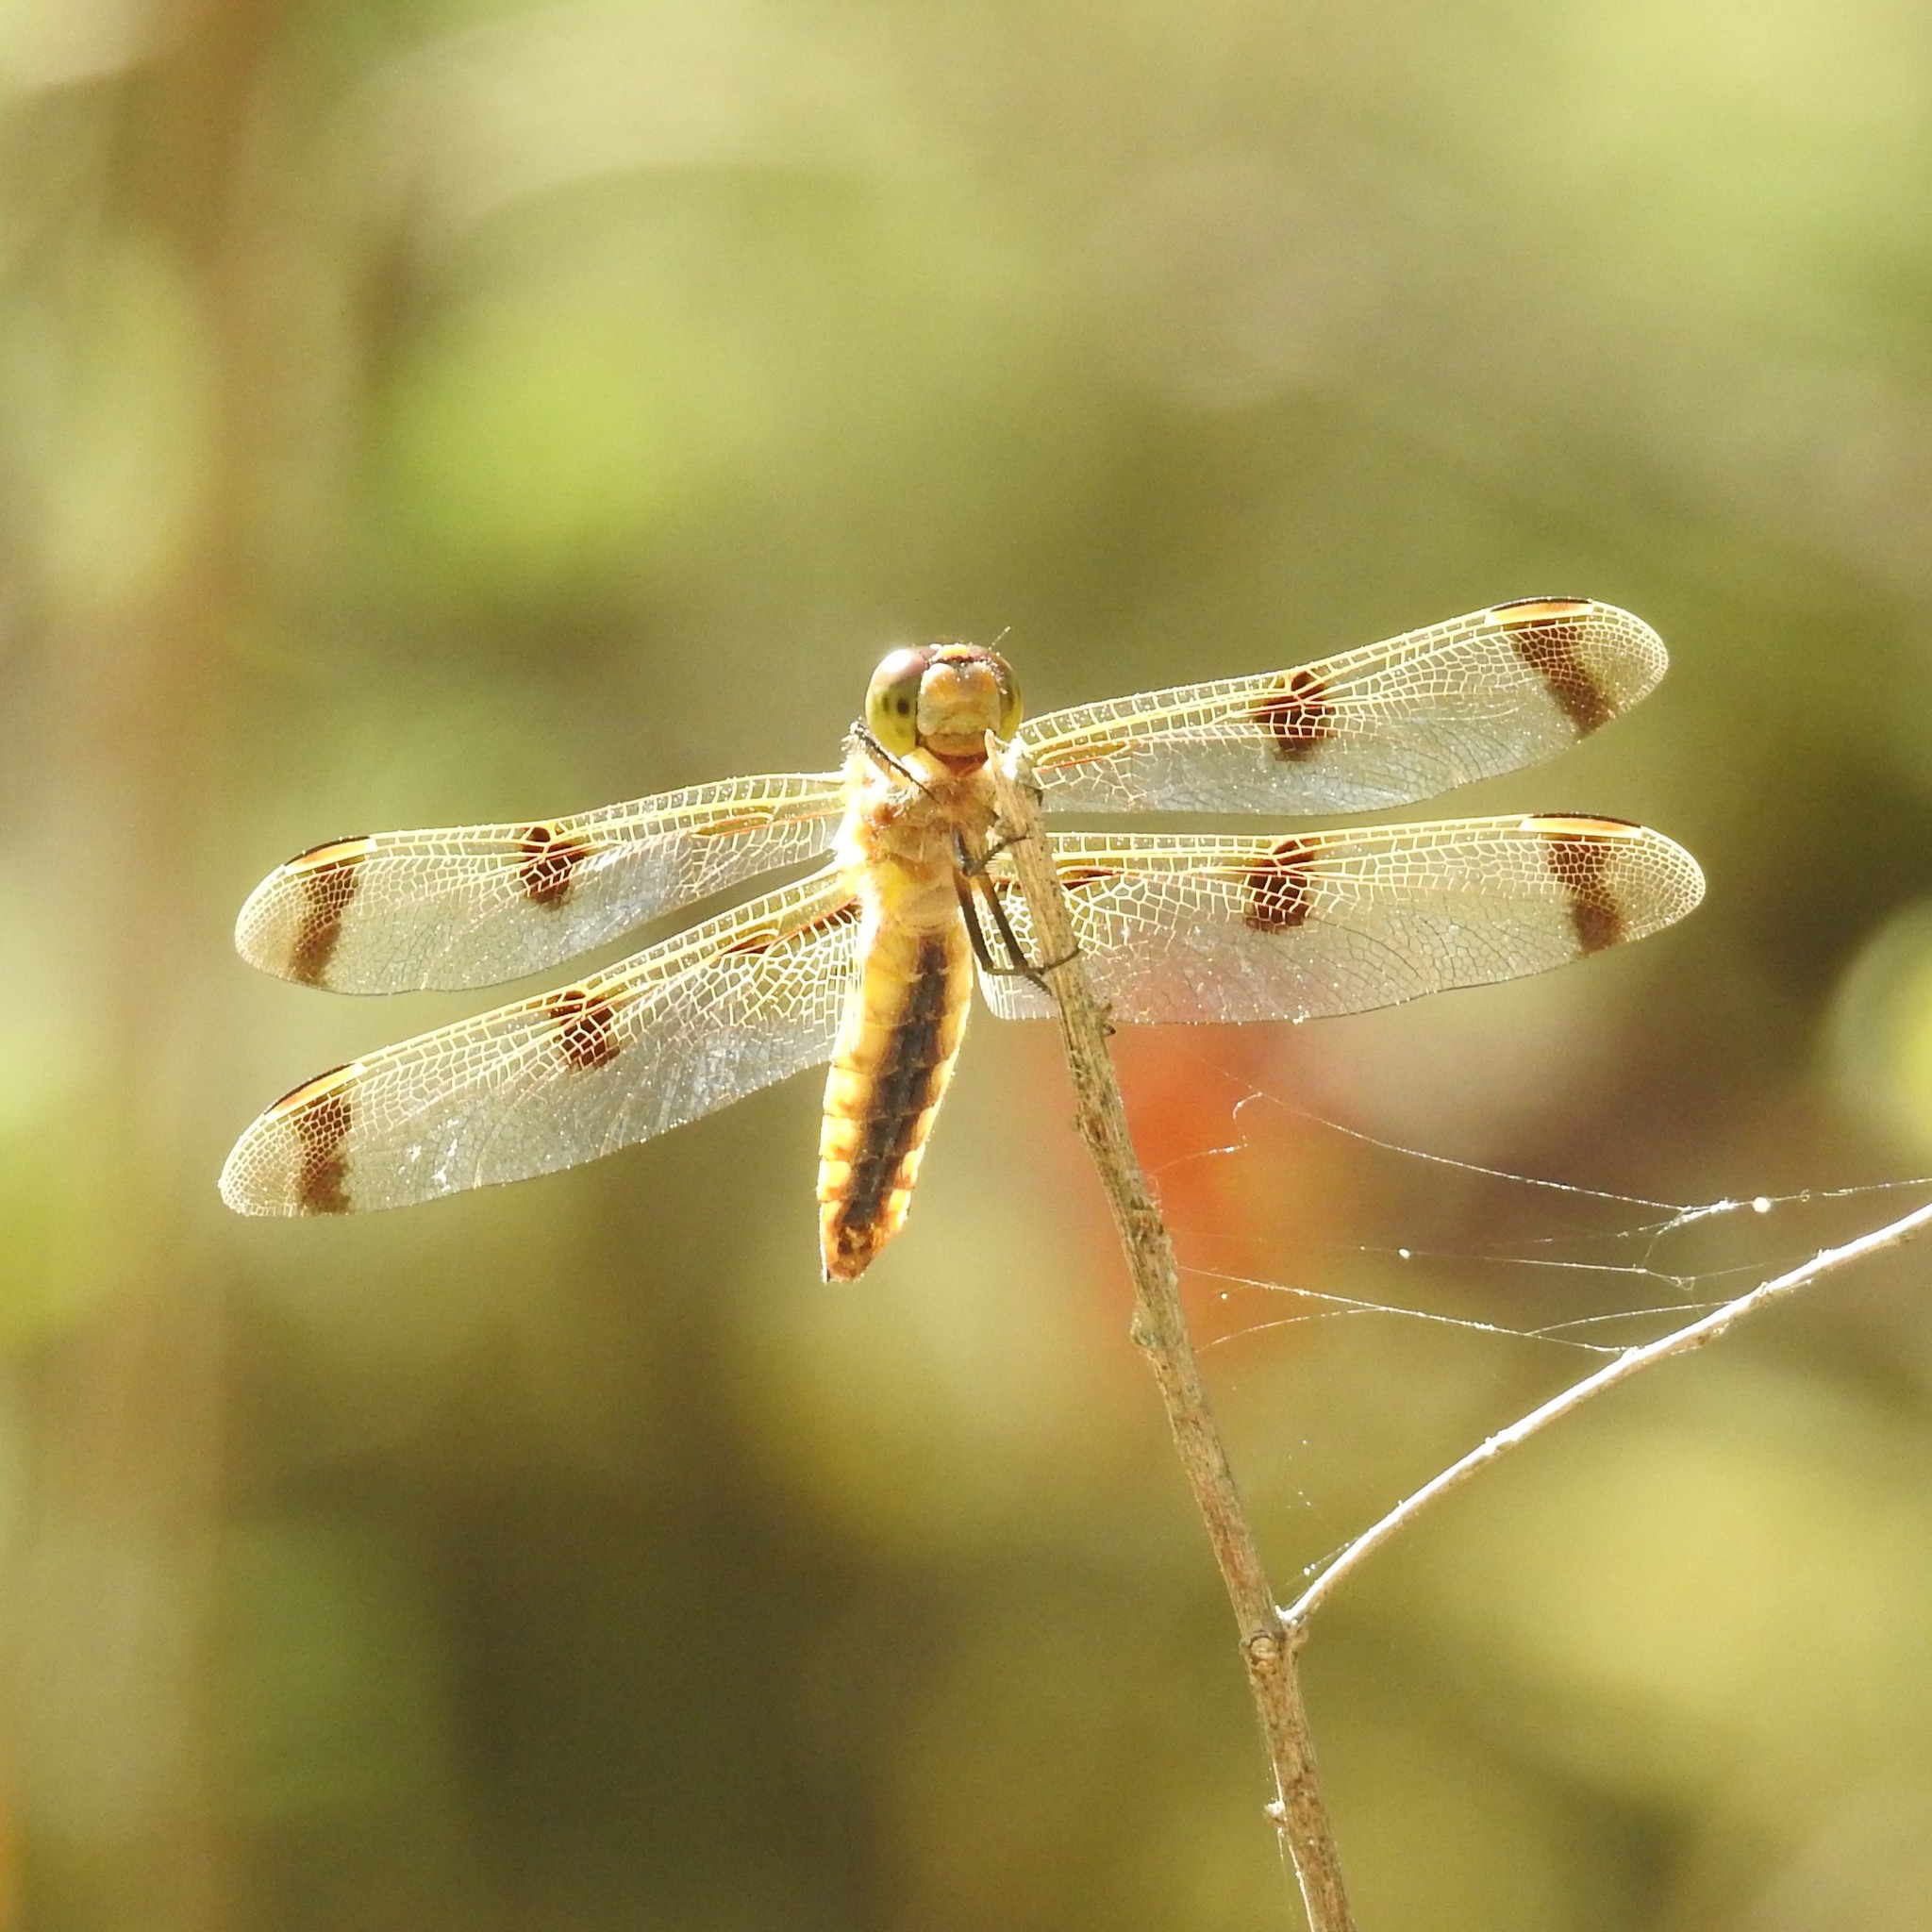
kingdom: Animalia
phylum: Arthropoda
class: Insecta
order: Odonata
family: Libellulidae
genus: Libellula
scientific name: Libellula semifasciata
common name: Painted skimmer
